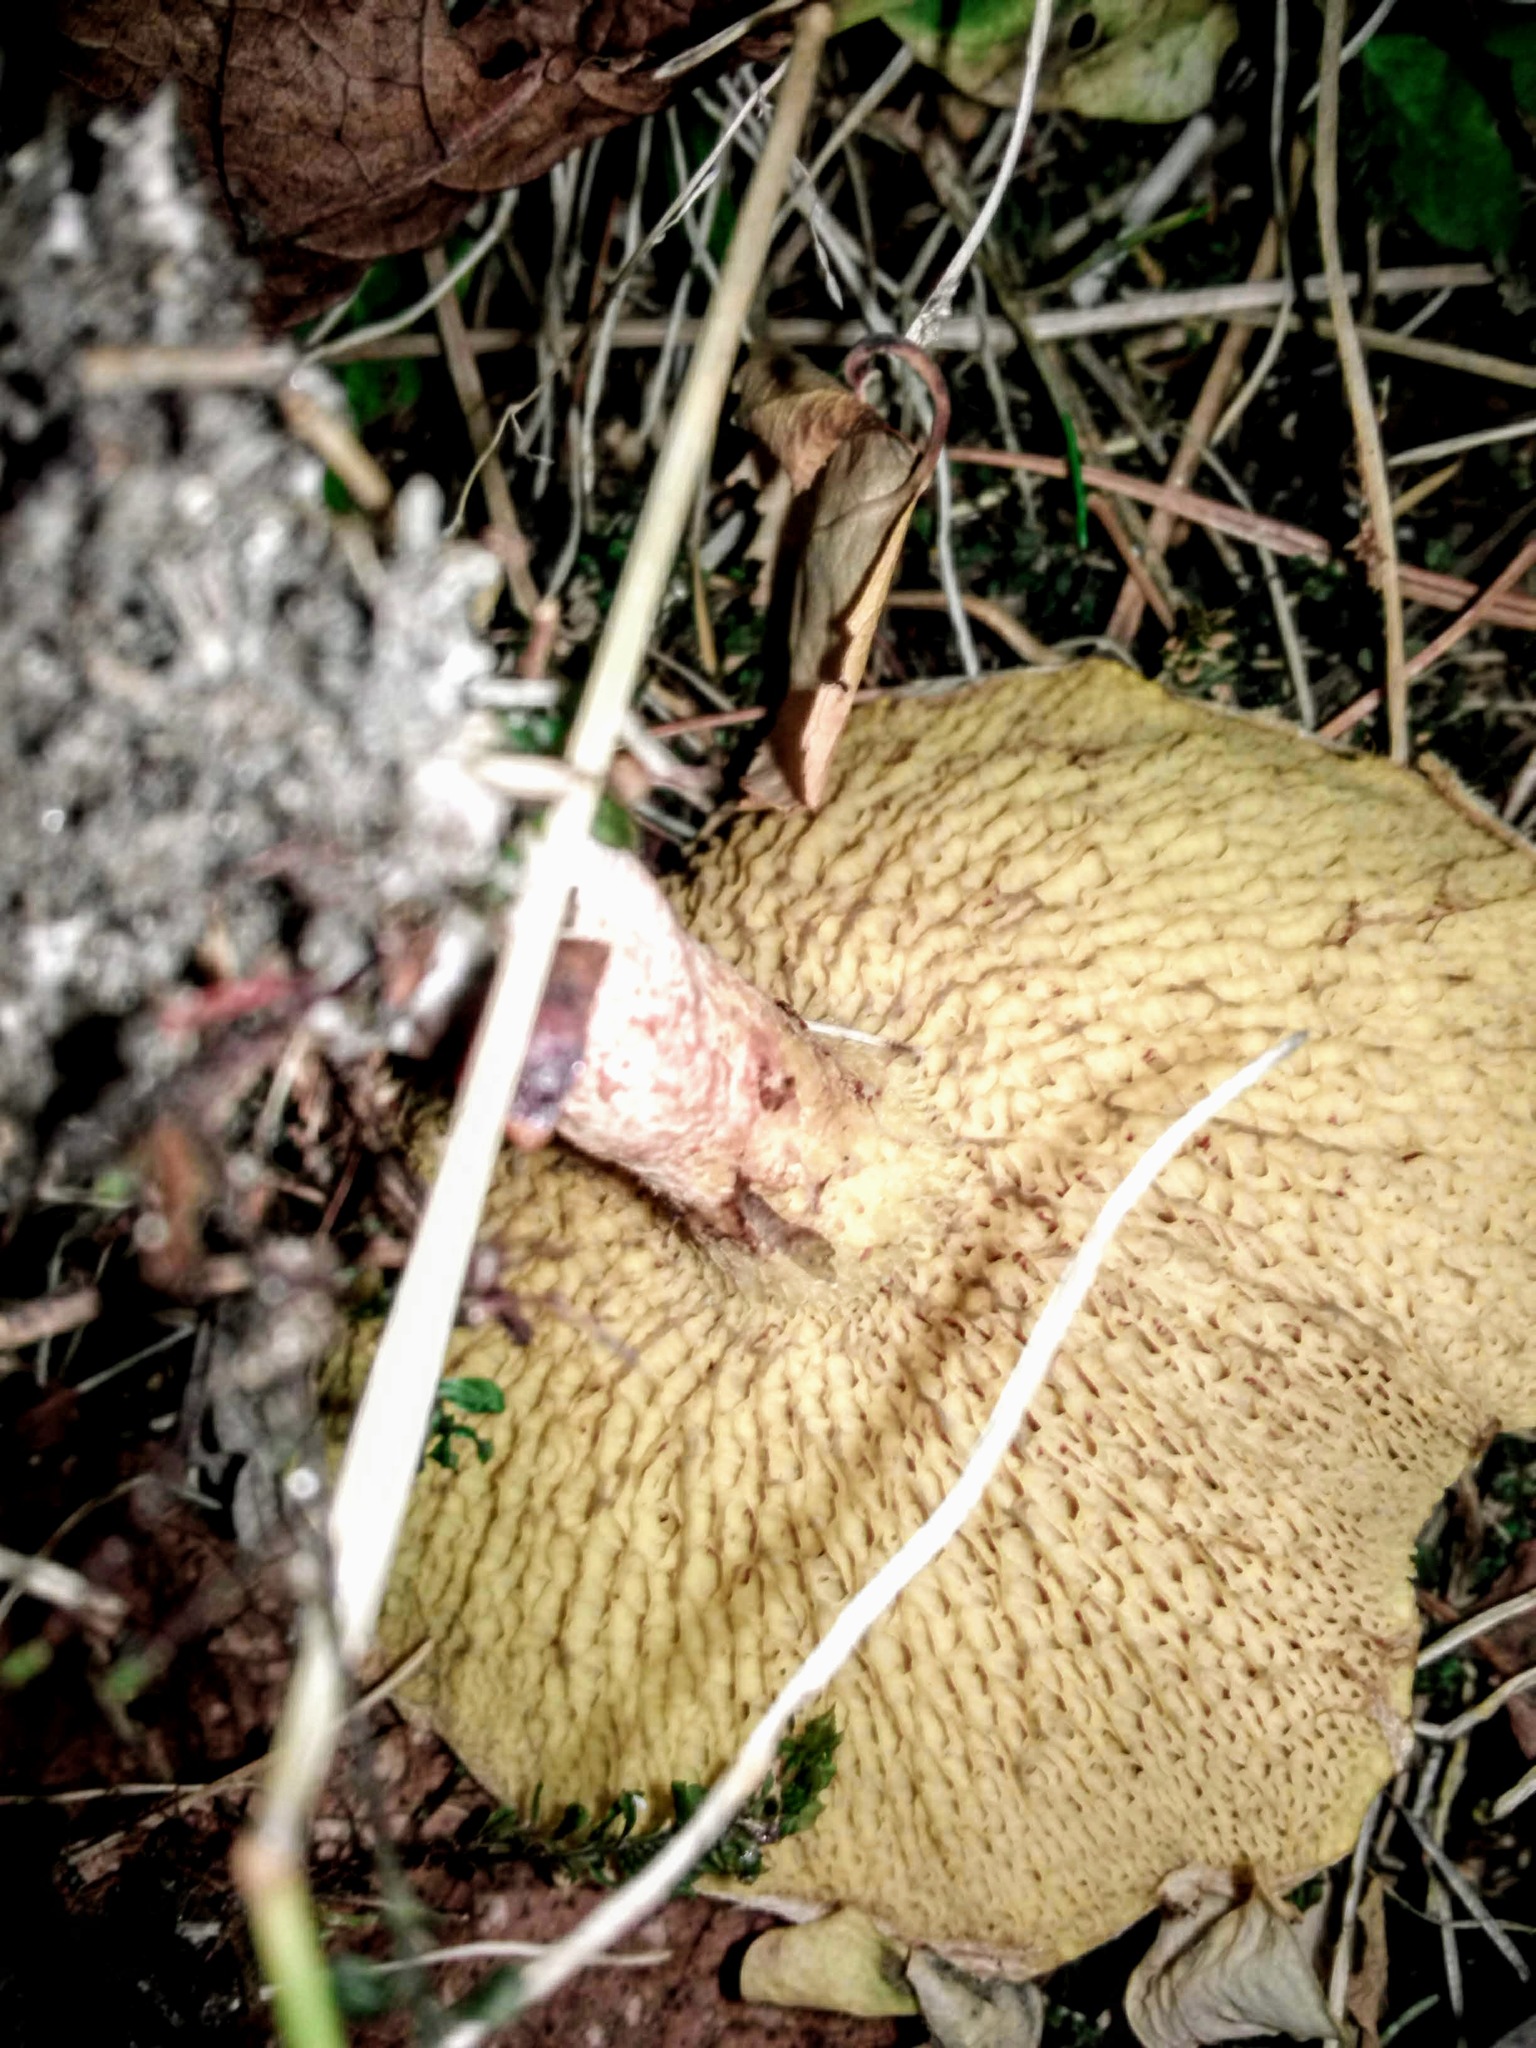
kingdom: Fungi
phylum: Basidiomycota
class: Agaricomycetes
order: Boletales
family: Suillaceae
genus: Suillus
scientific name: Suillus americanus
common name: Chicken fat mushroom
